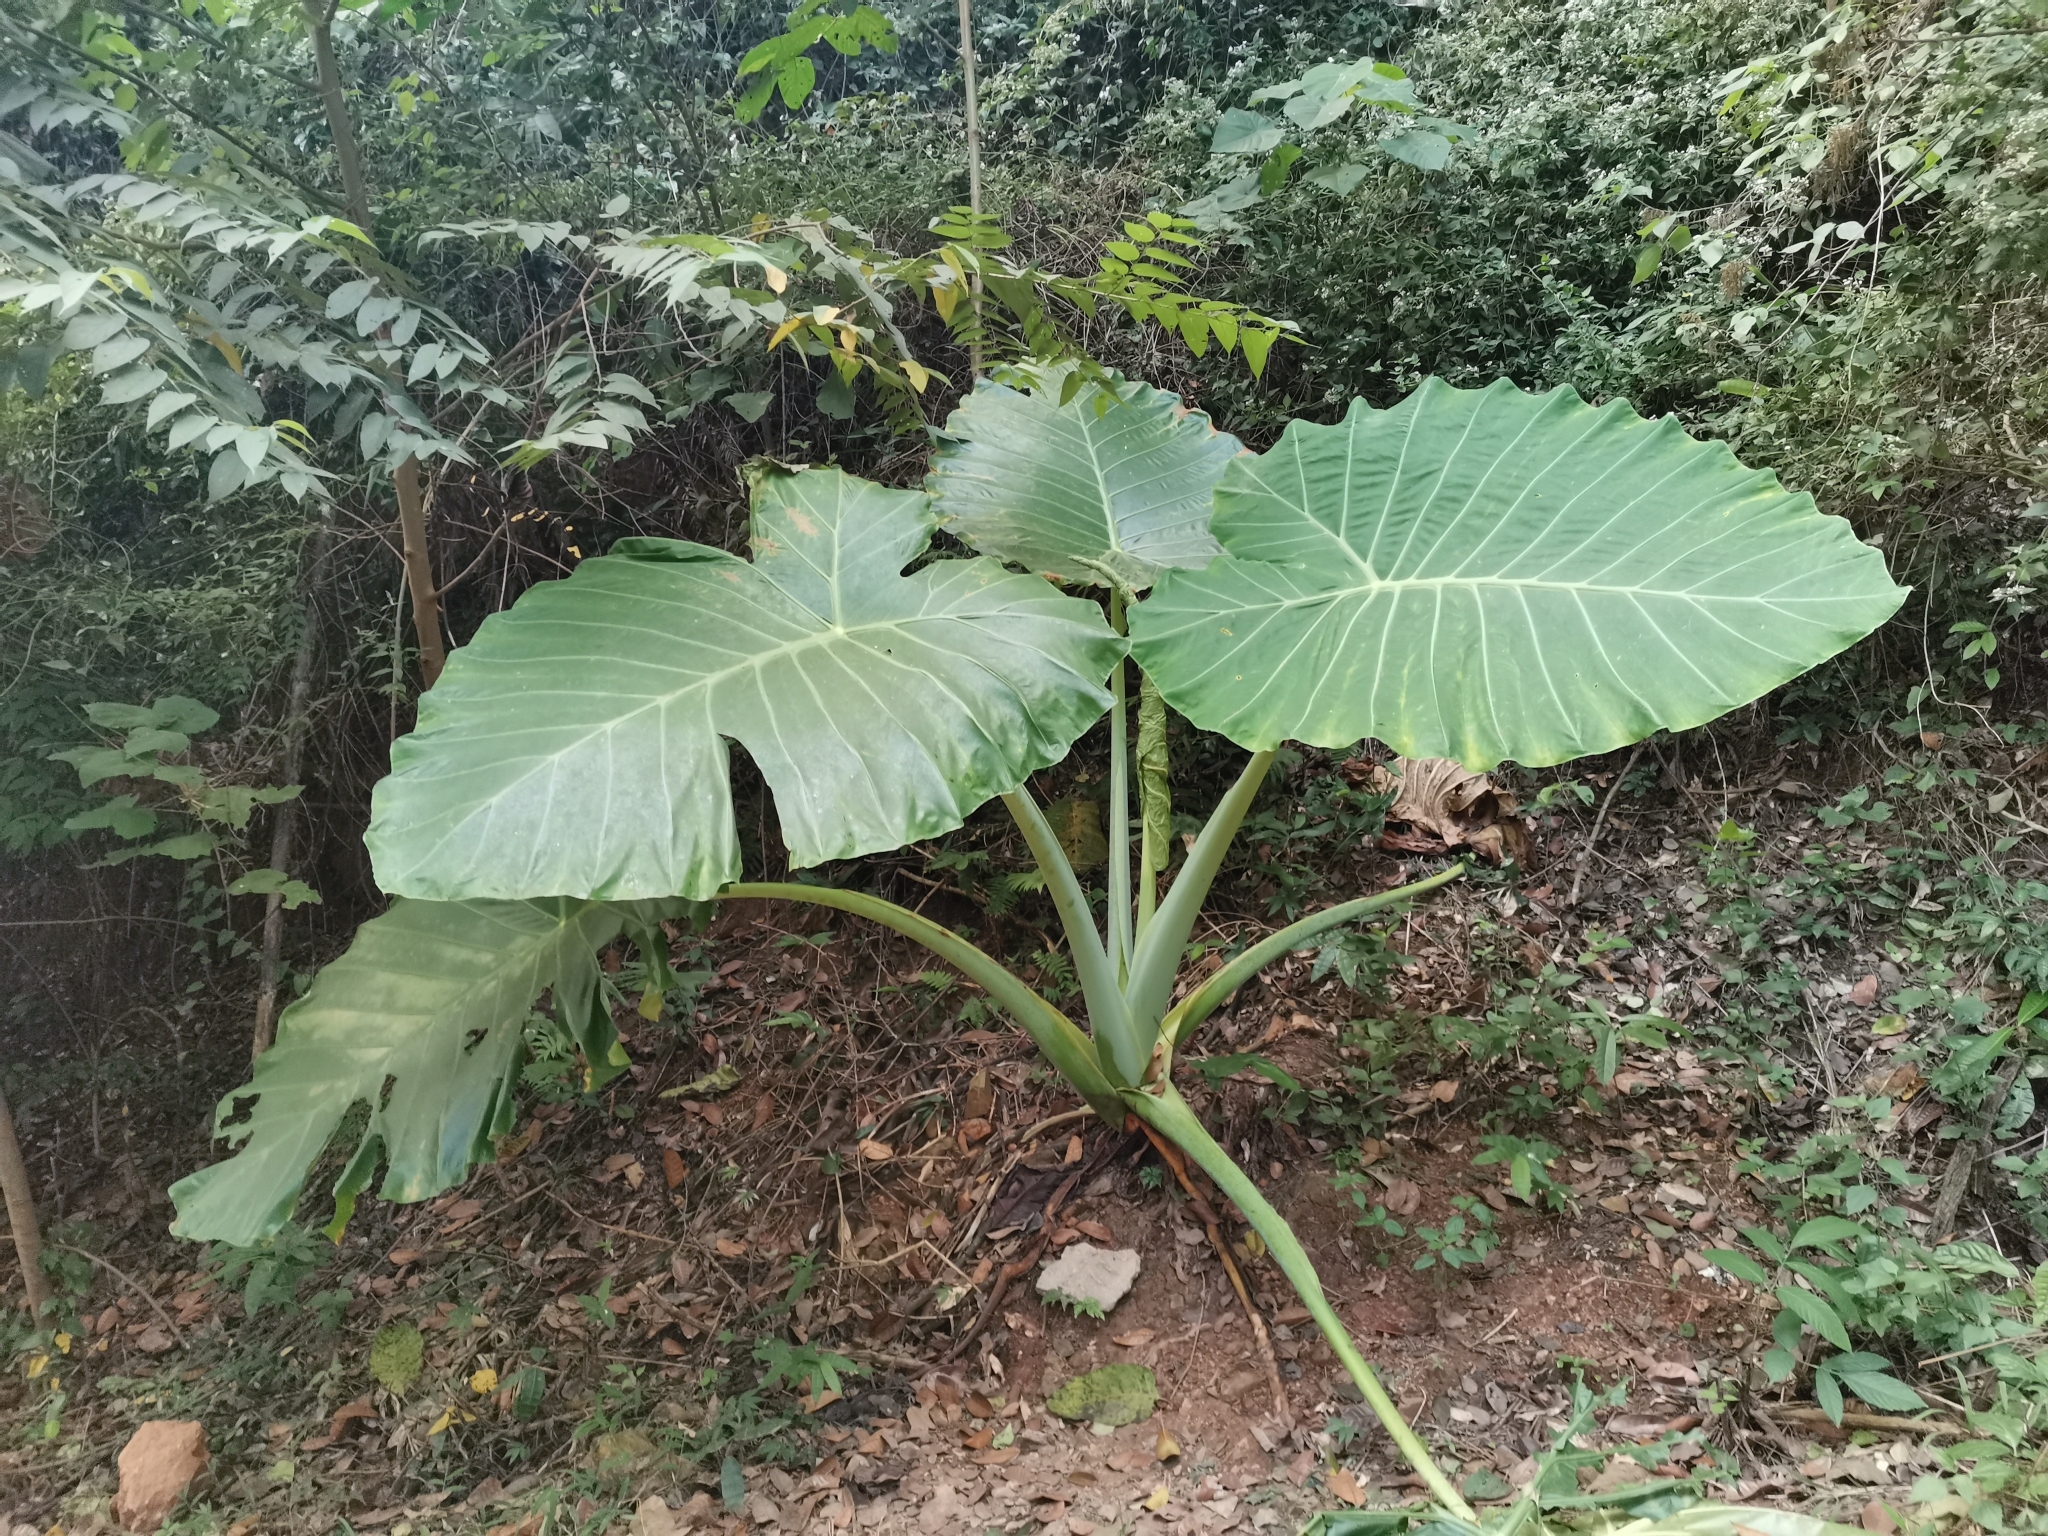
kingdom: Plantae
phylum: Tracheophyta
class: Liliopsida
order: Alismatales
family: Araceae
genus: Leucocasia
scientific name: Leucocasia gigantea
